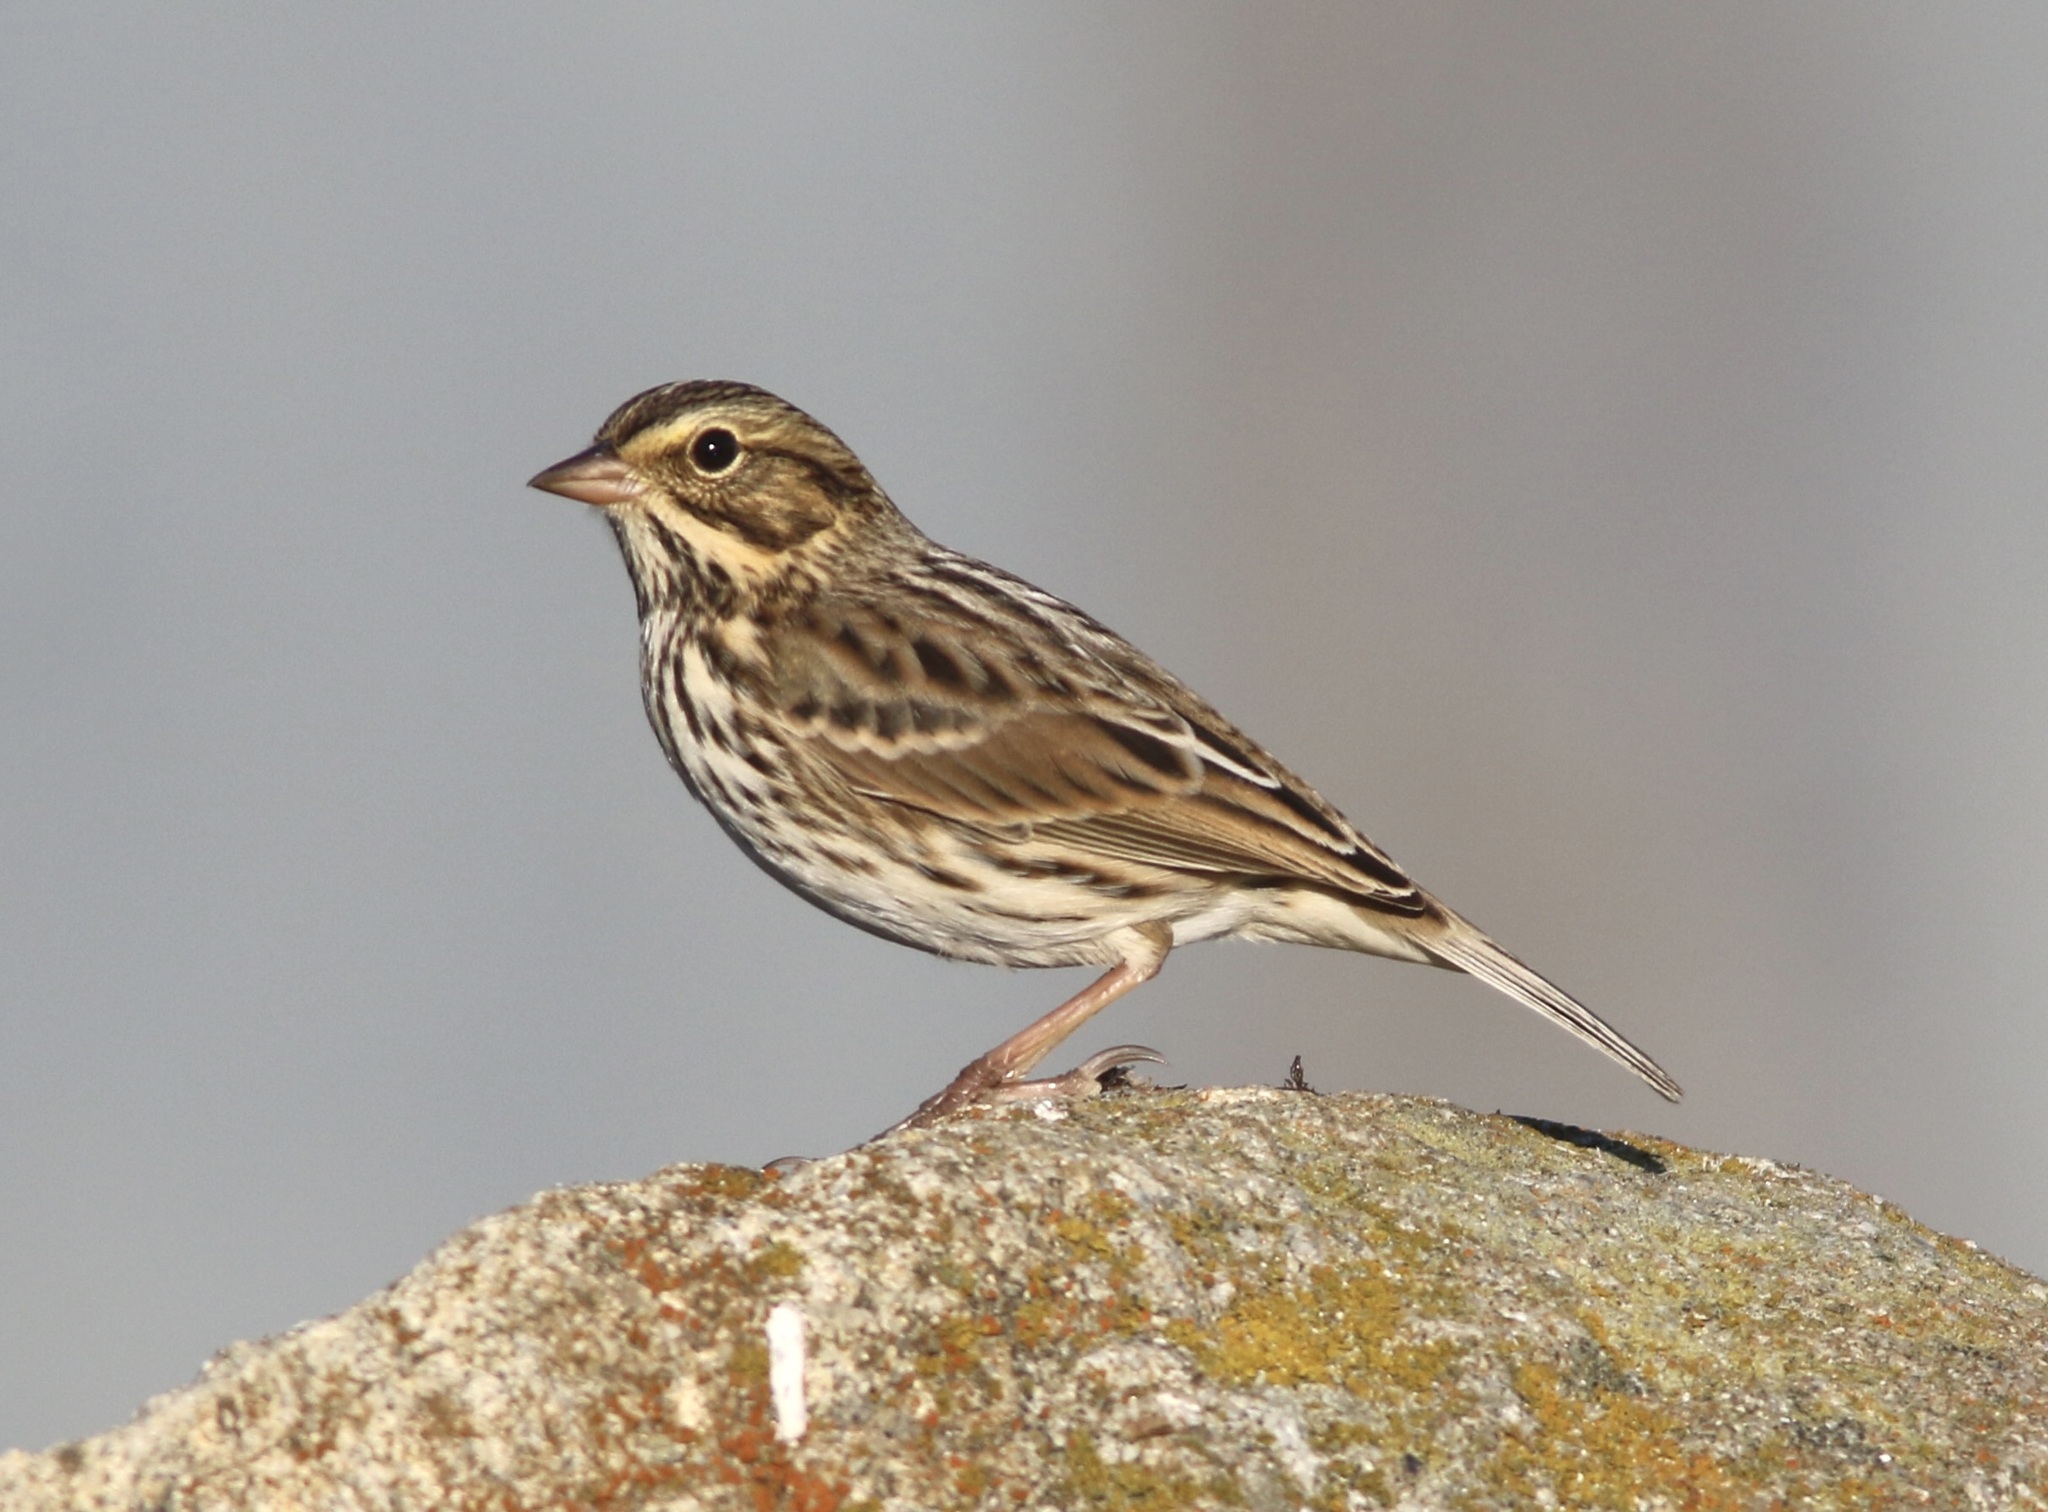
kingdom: Animalia
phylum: Chordata
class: Aves
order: Passeriformes
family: Passerellidae
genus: Passerculus
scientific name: Passerculus sandwichensis
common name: Savannah sparrow
